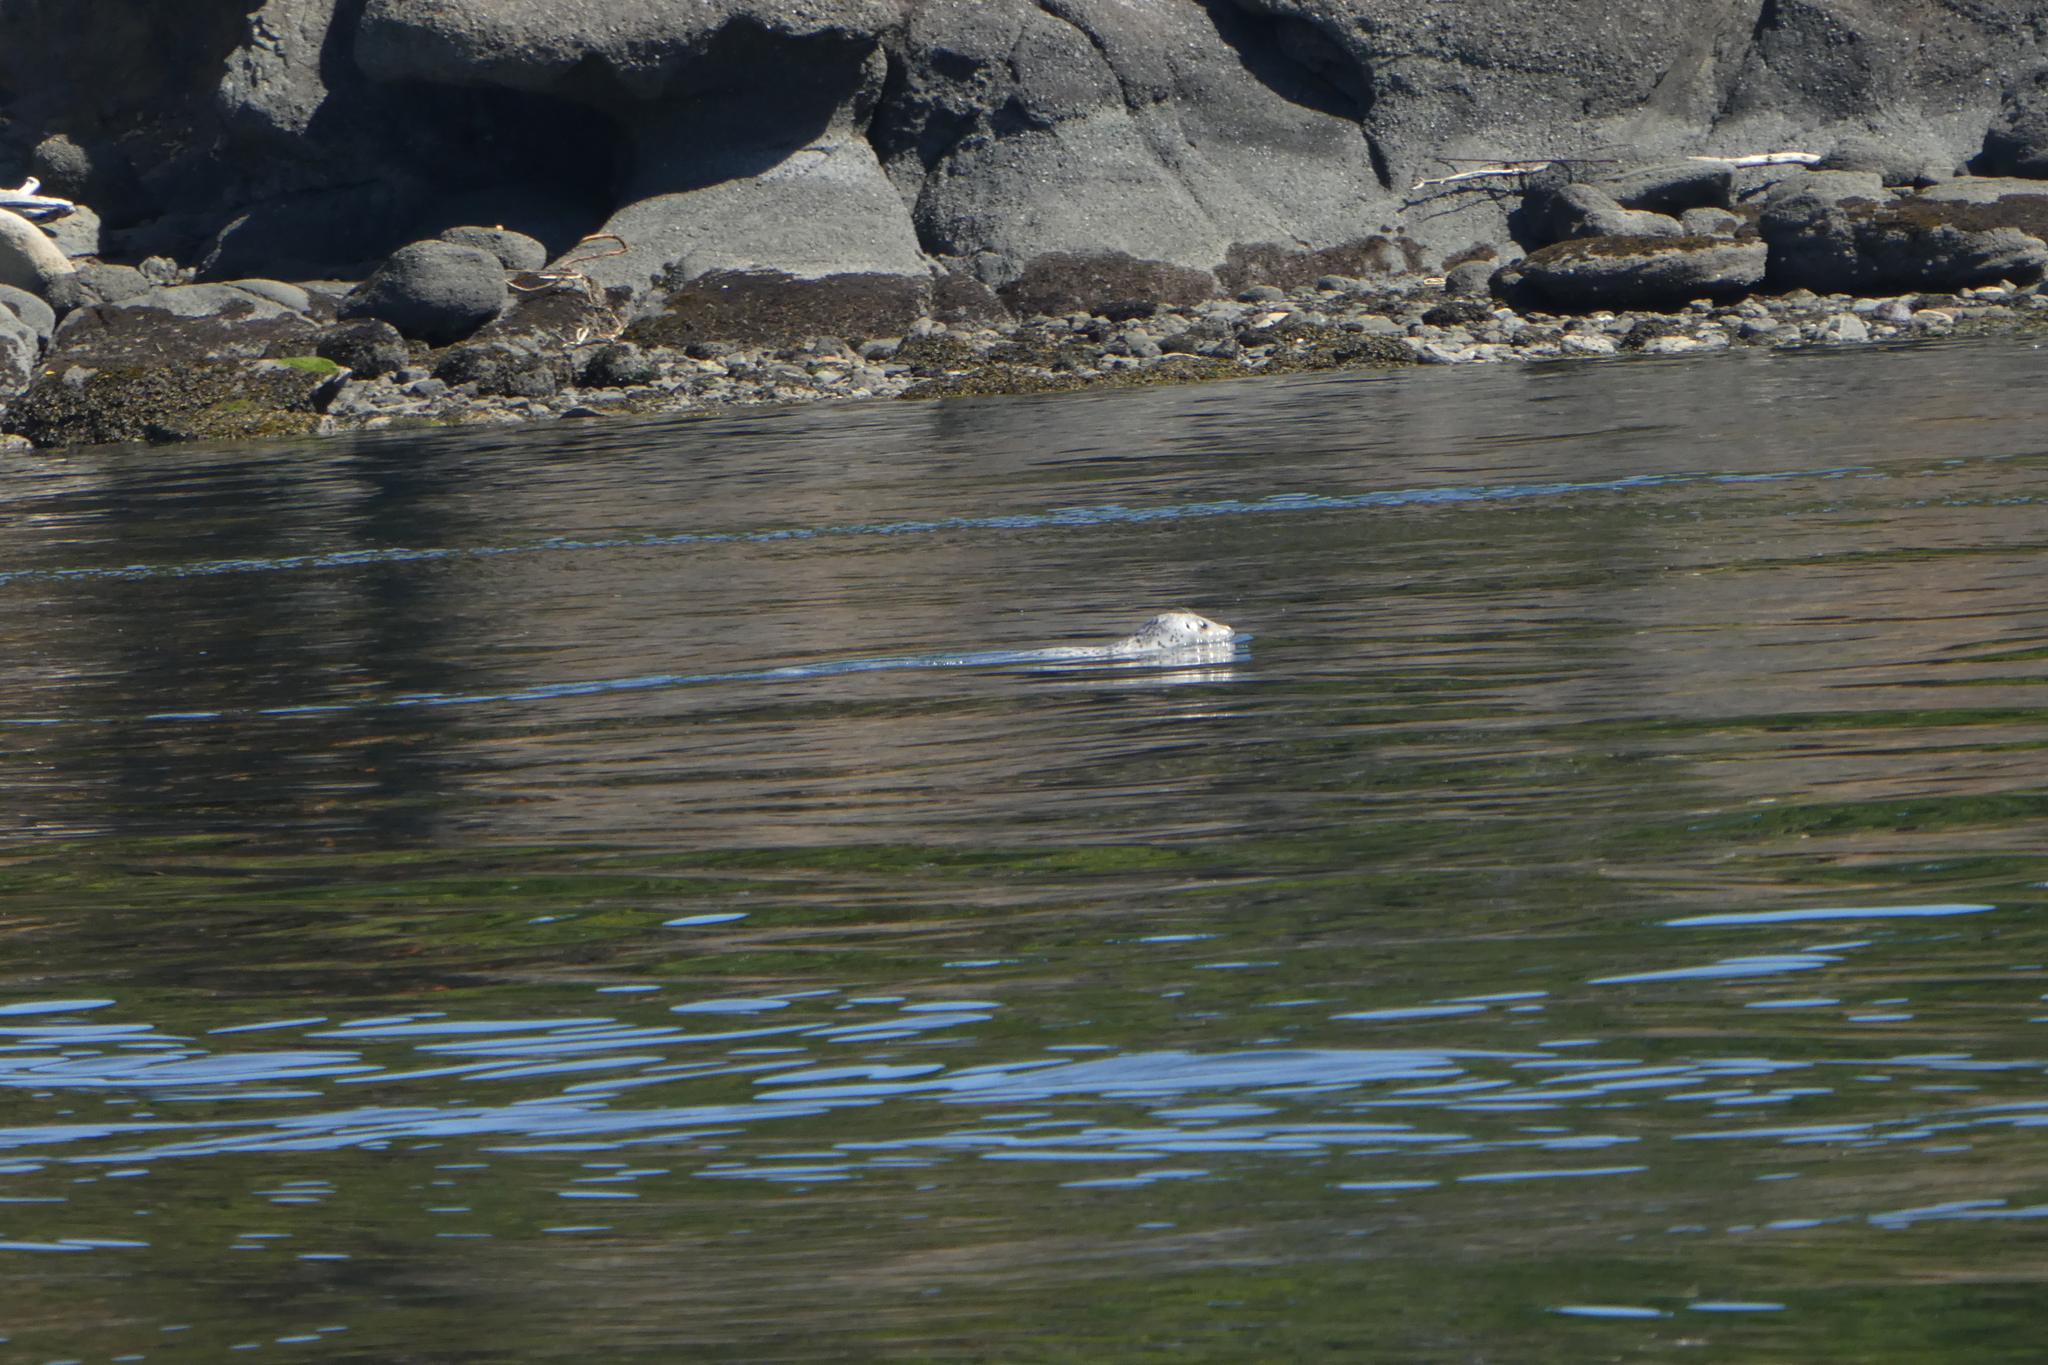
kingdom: Animalia
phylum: Chordata
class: Mammalia
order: Carnivora
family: Phocidae
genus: Phoca
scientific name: Phoca vitulina
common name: Harbor seal
